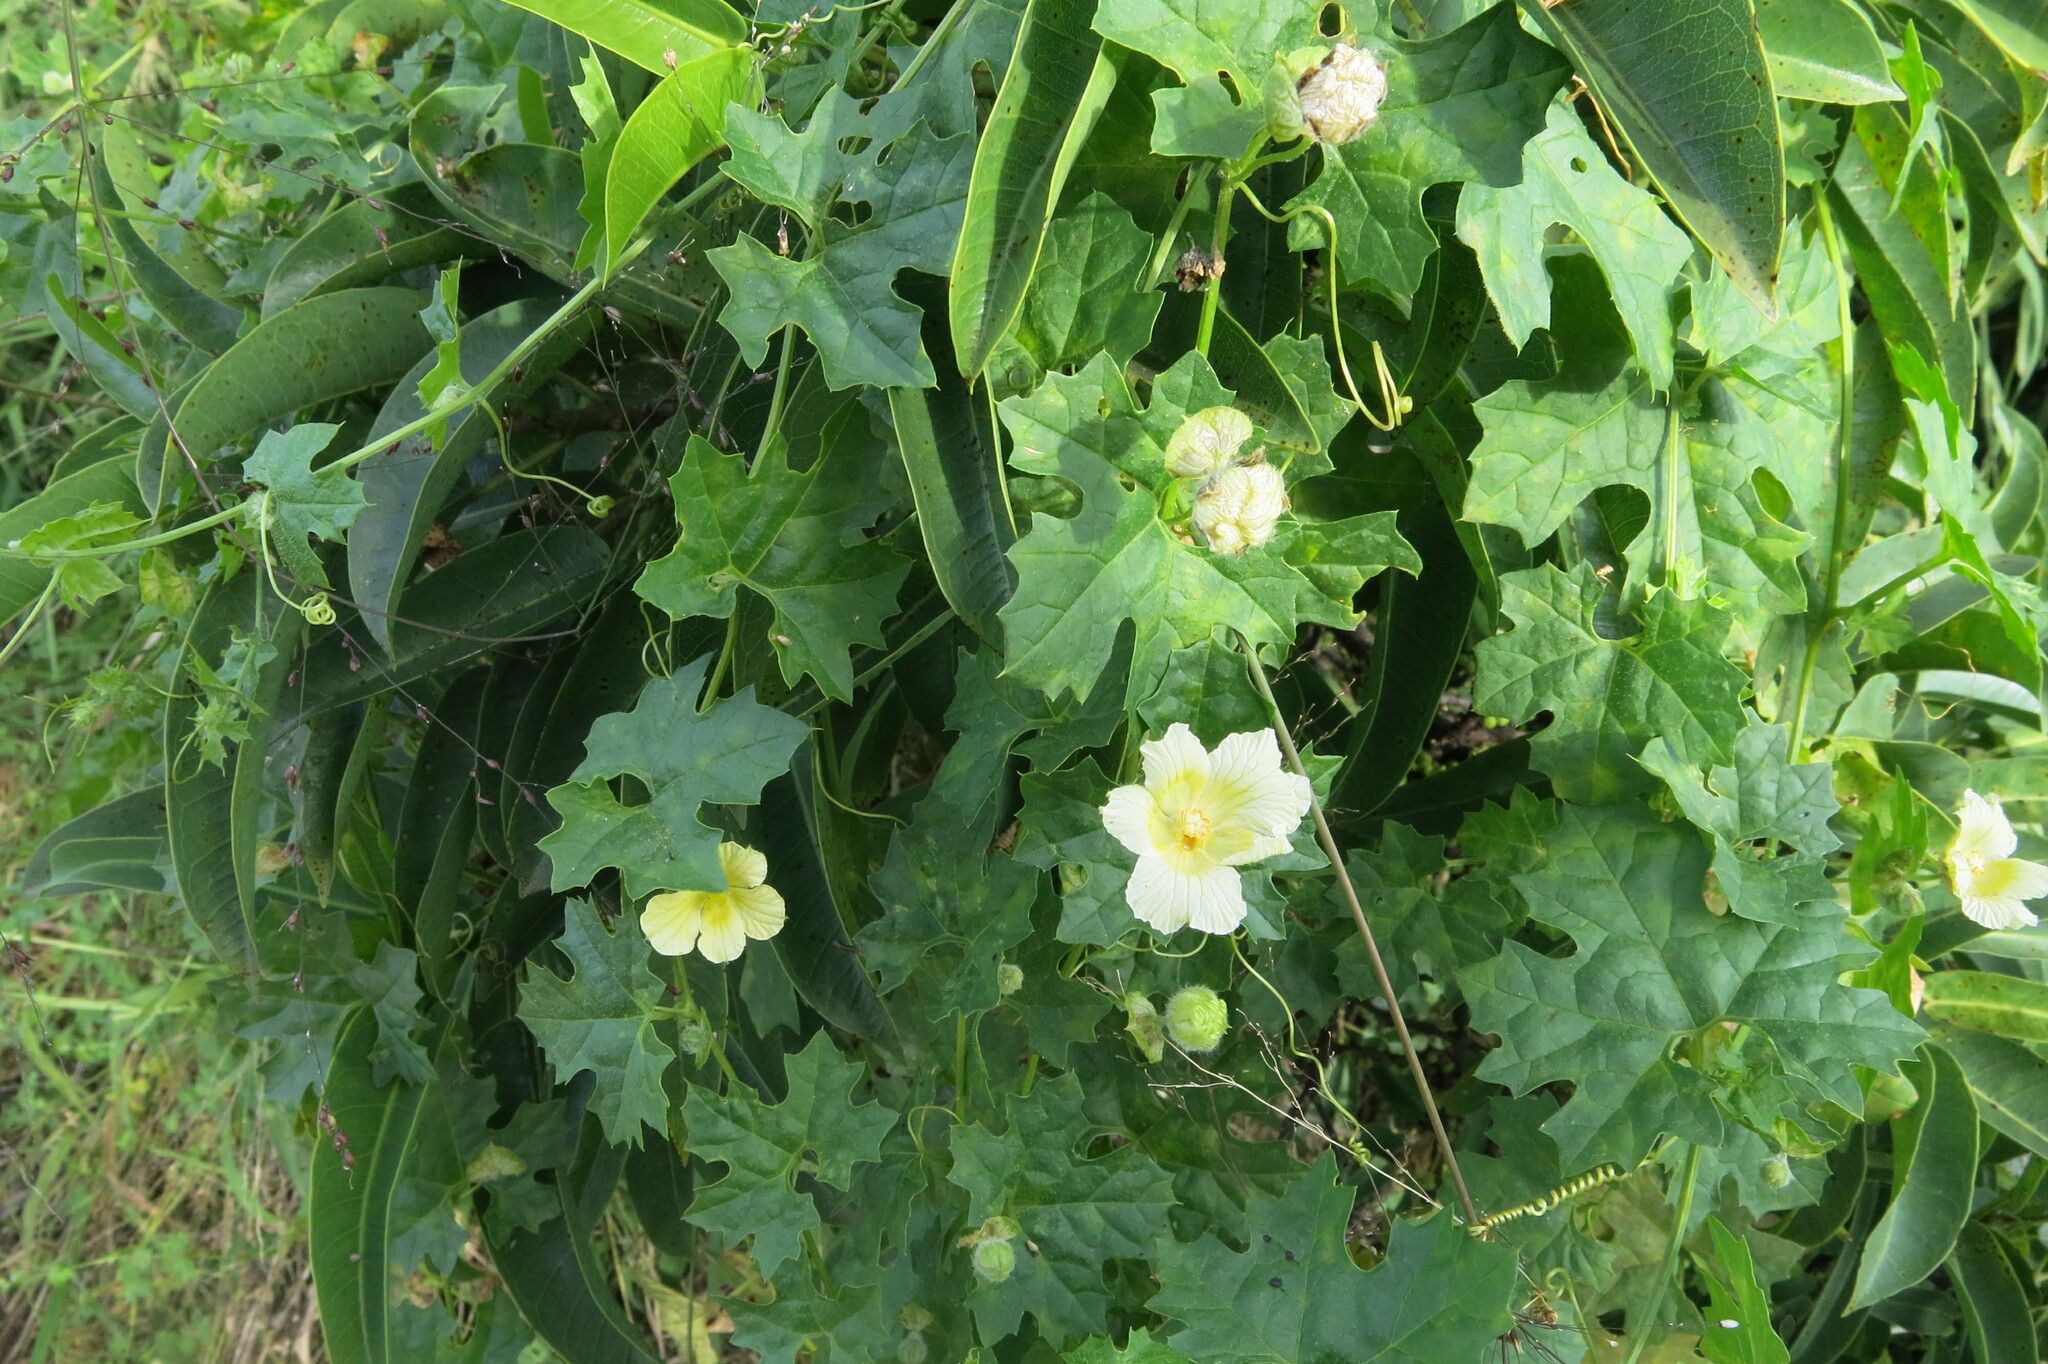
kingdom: Plantae
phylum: Tracheophyta
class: Magnoliopsida
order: Cucurbitales
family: Cucurbitaceae
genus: Momordica
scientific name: Momordica balsamina
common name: Southern balsampear
